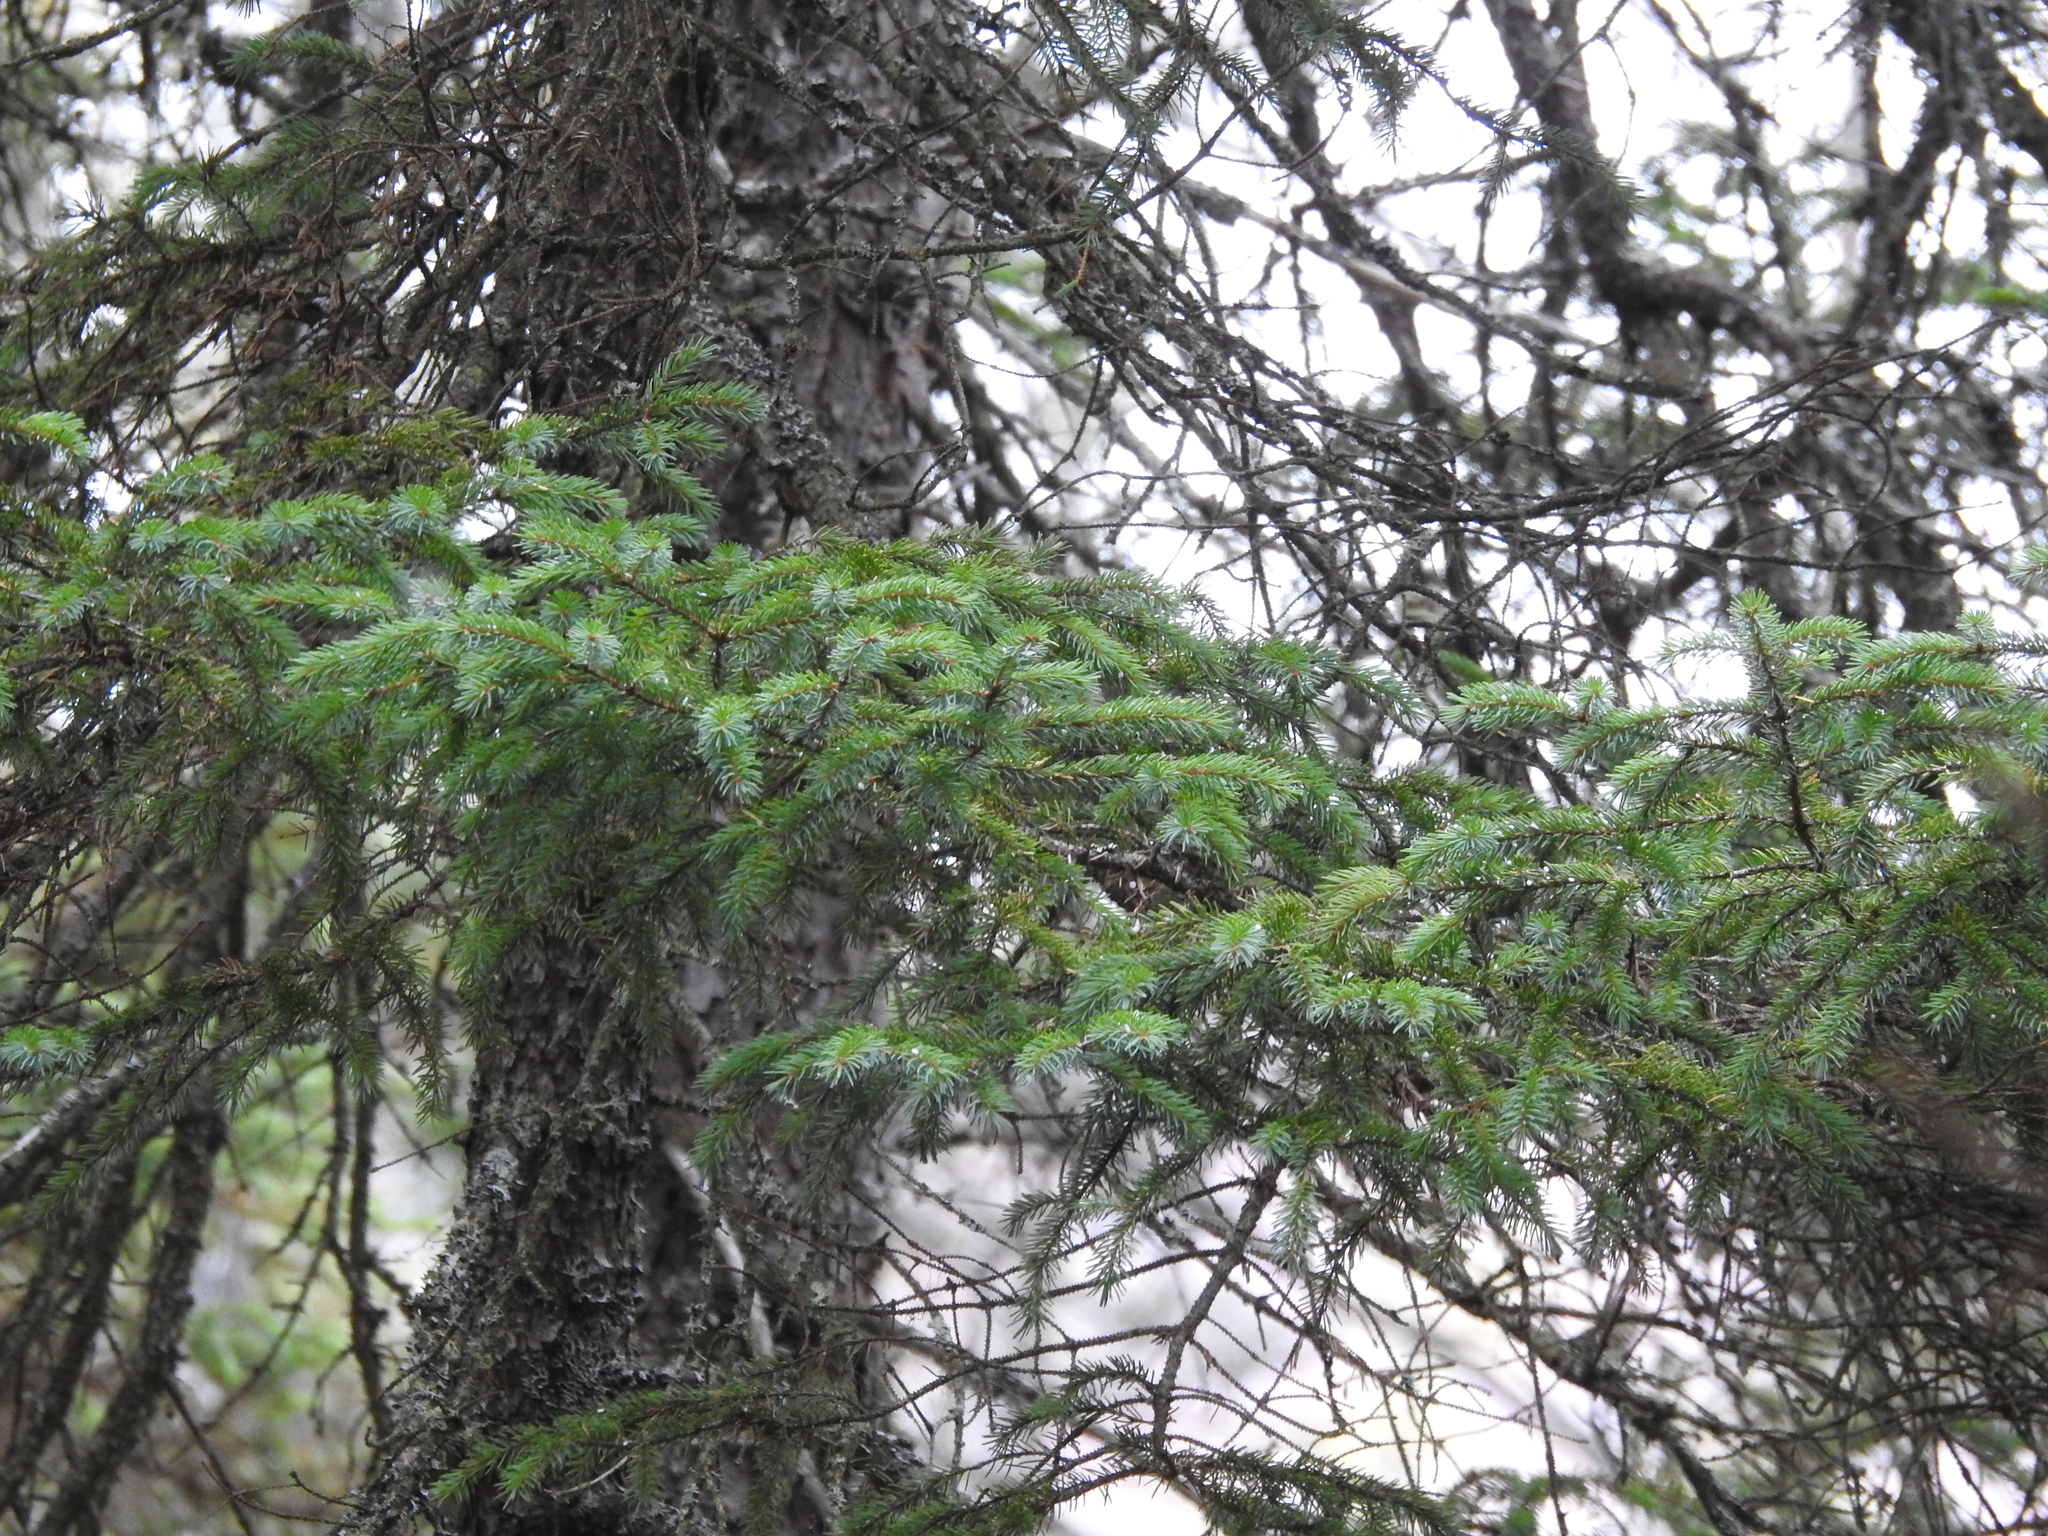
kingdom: Plantae
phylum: Tracheophyta
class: Pinopsida
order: Pinales
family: Pinaceae
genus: Picea
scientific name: Picea rubens
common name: Red spruce
